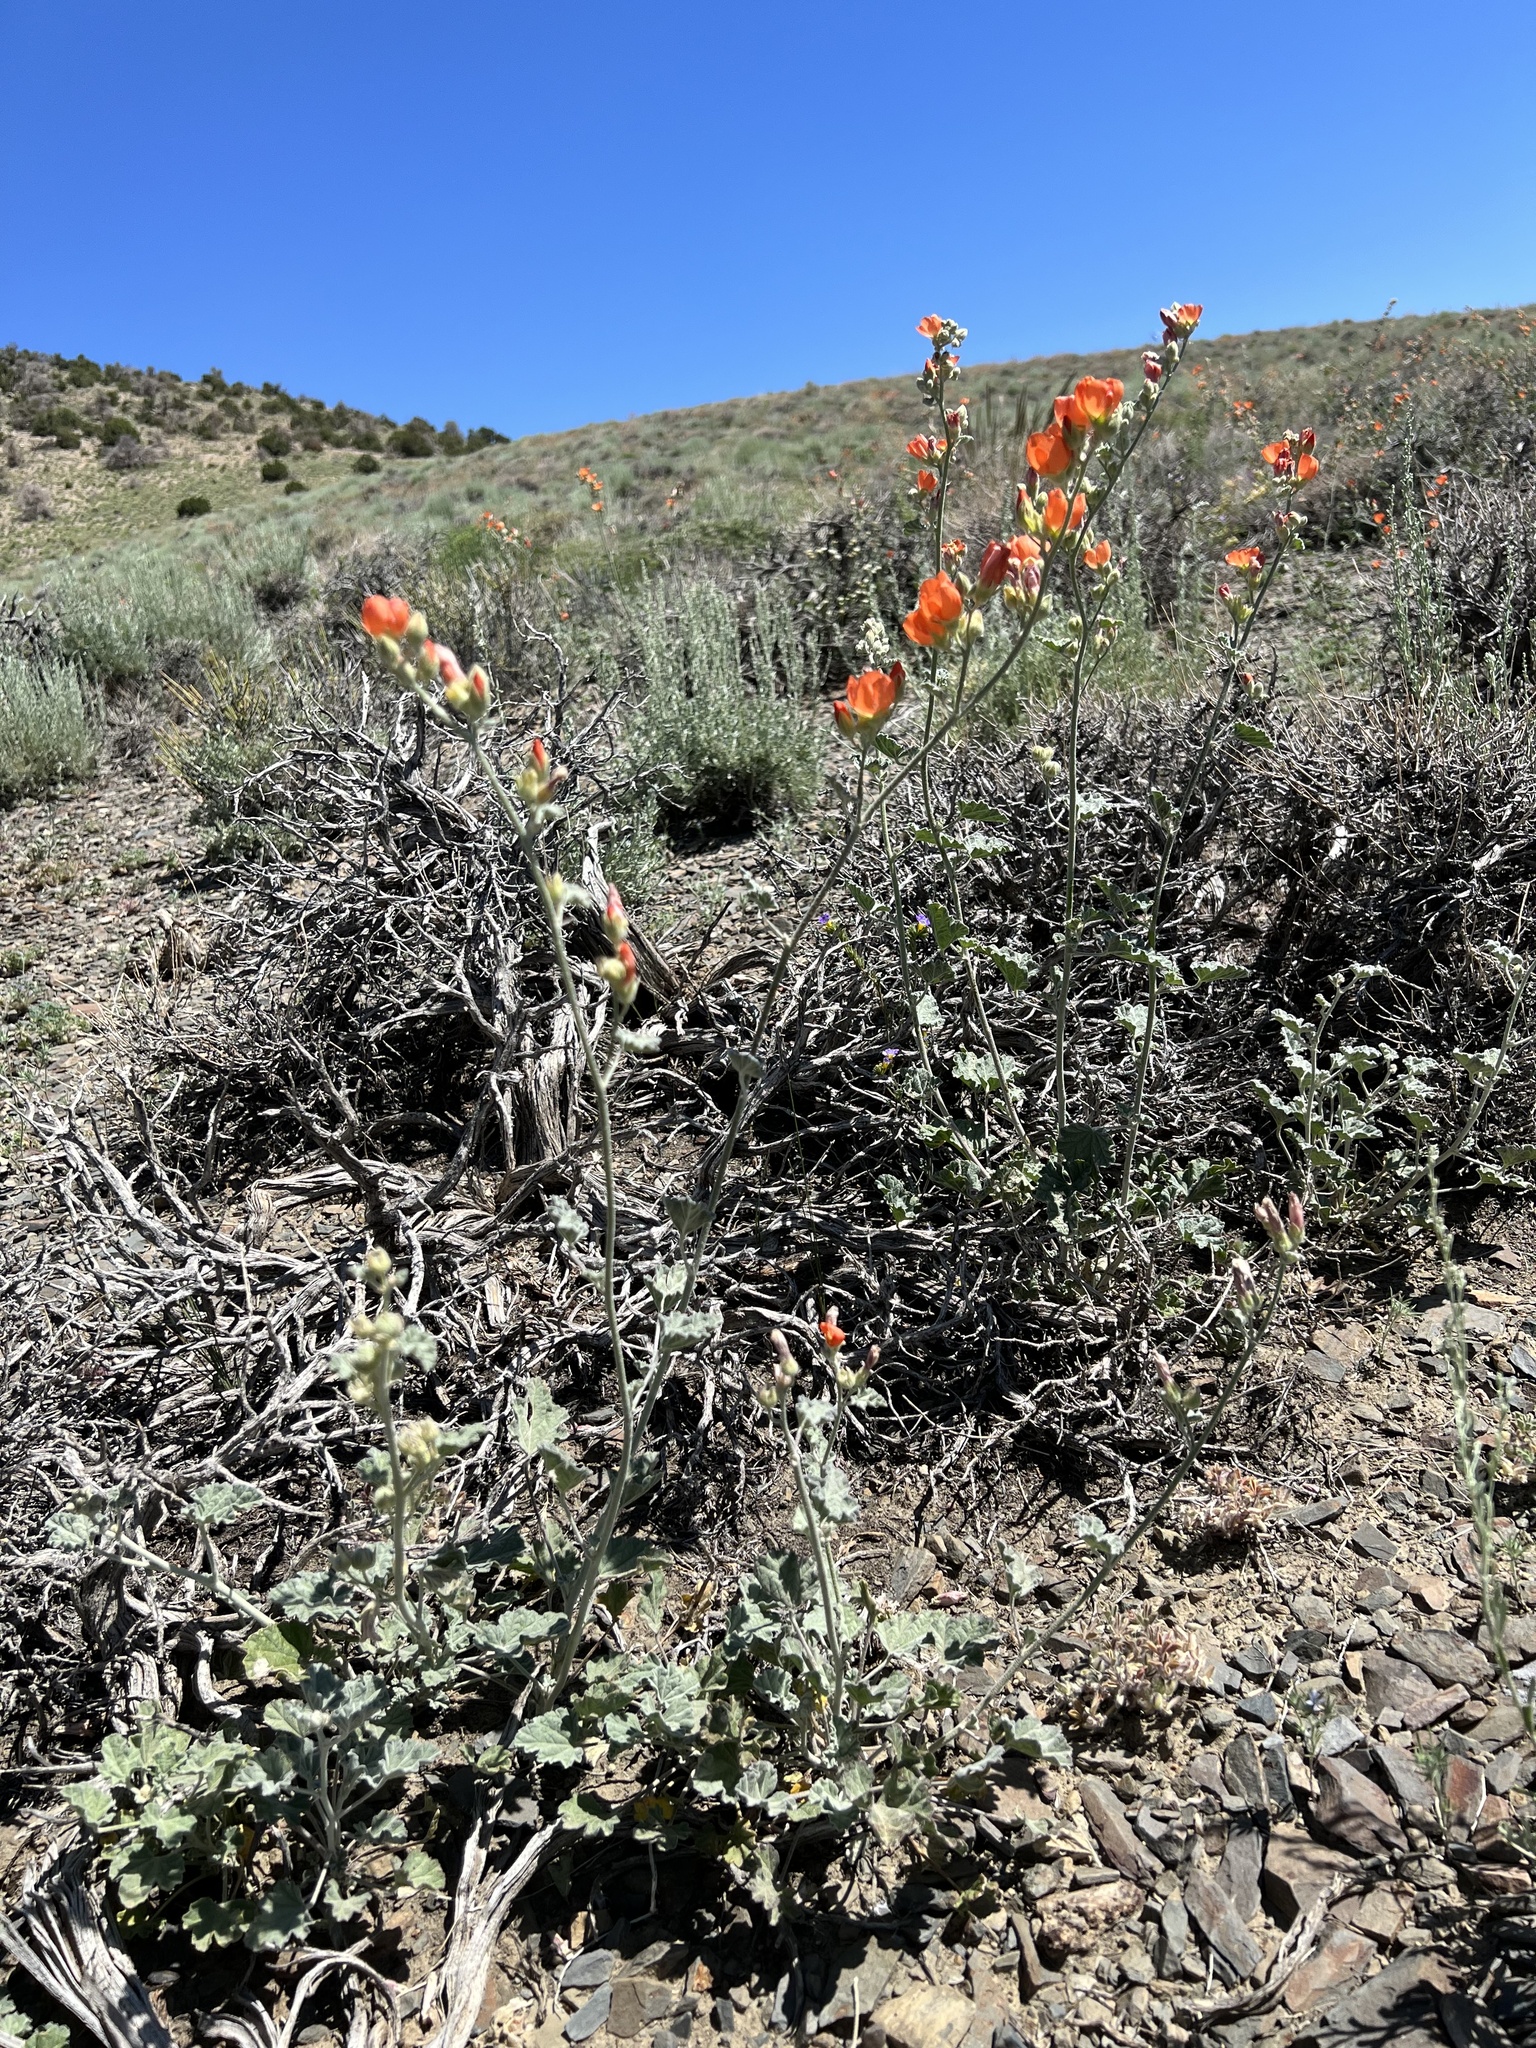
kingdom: Plantae
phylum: Tracheophyta
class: Magnoliopsida
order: Malvales
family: Malvaceae
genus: Sphaeralcea
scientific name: Sphaeralcea ambigua
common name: Apricot globe-mallow
